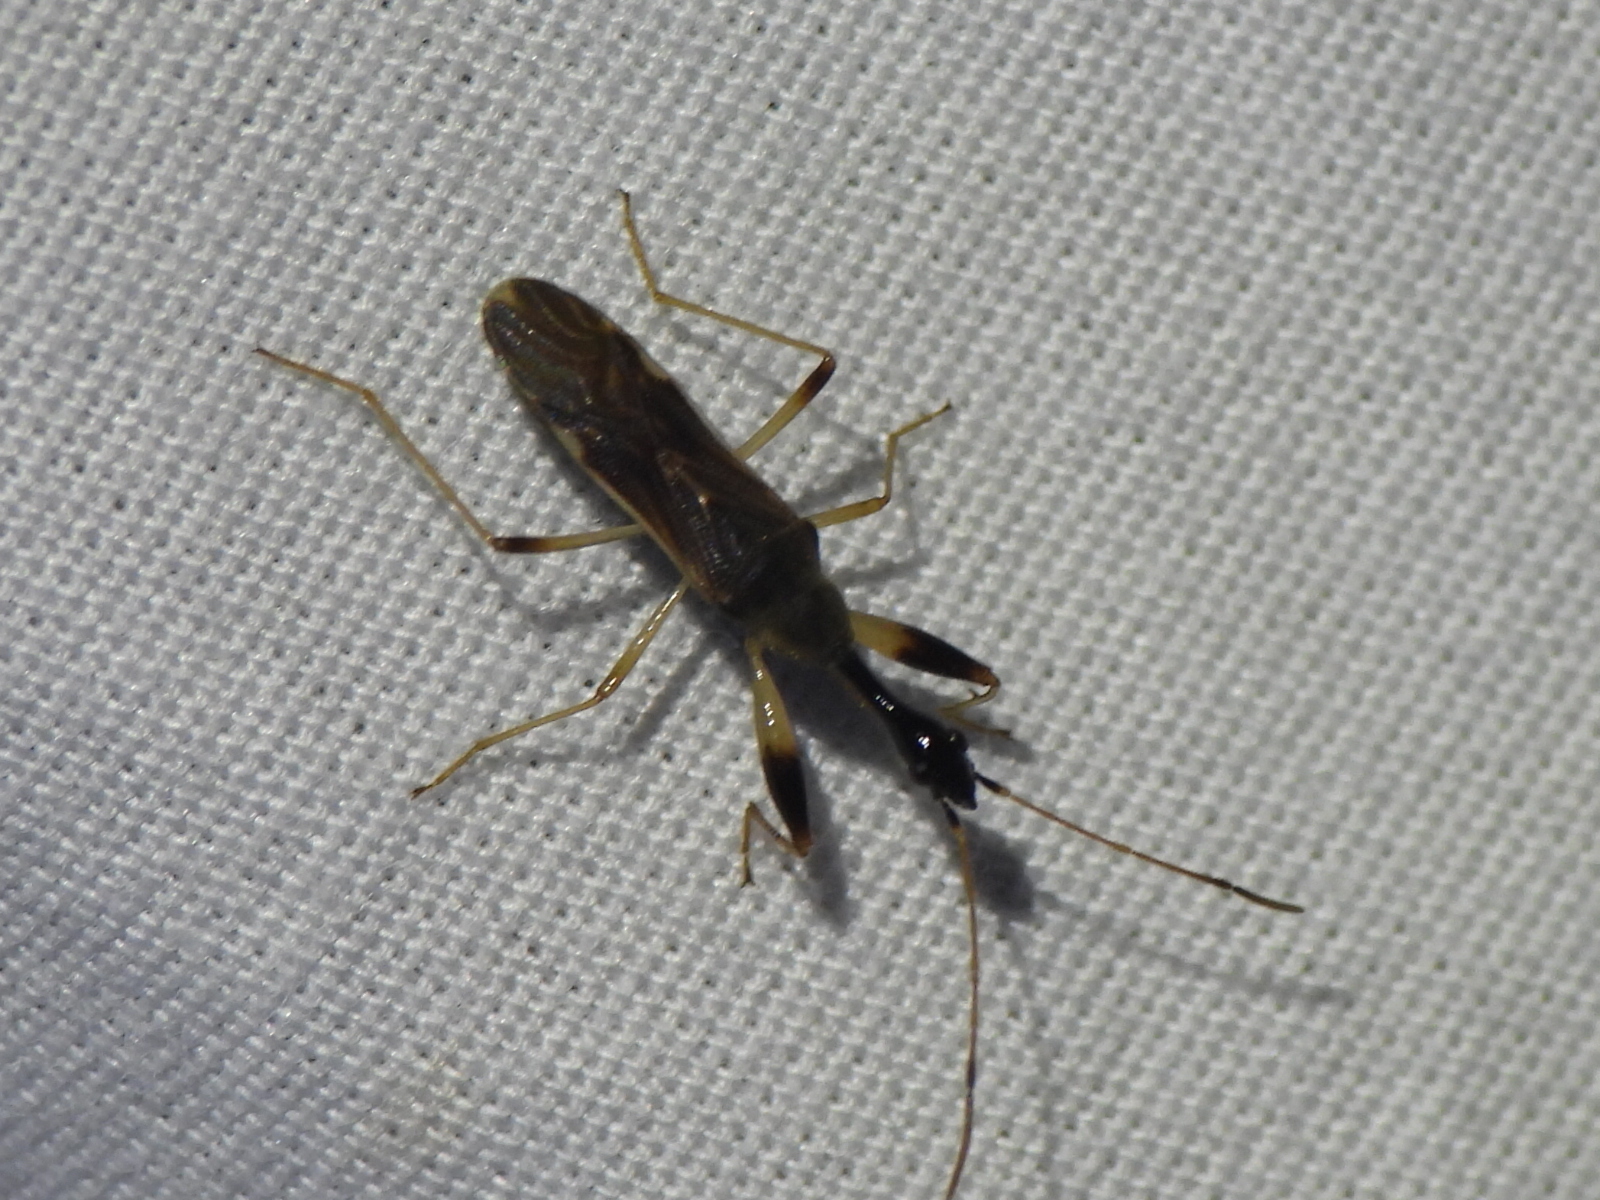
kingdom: Animalia
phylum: Arthropoda
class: Insecta
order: Hemiptera
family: Rhyparochromidae
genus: Myodocha
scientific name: Myodocha serripes
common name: Long-necked seed bug
